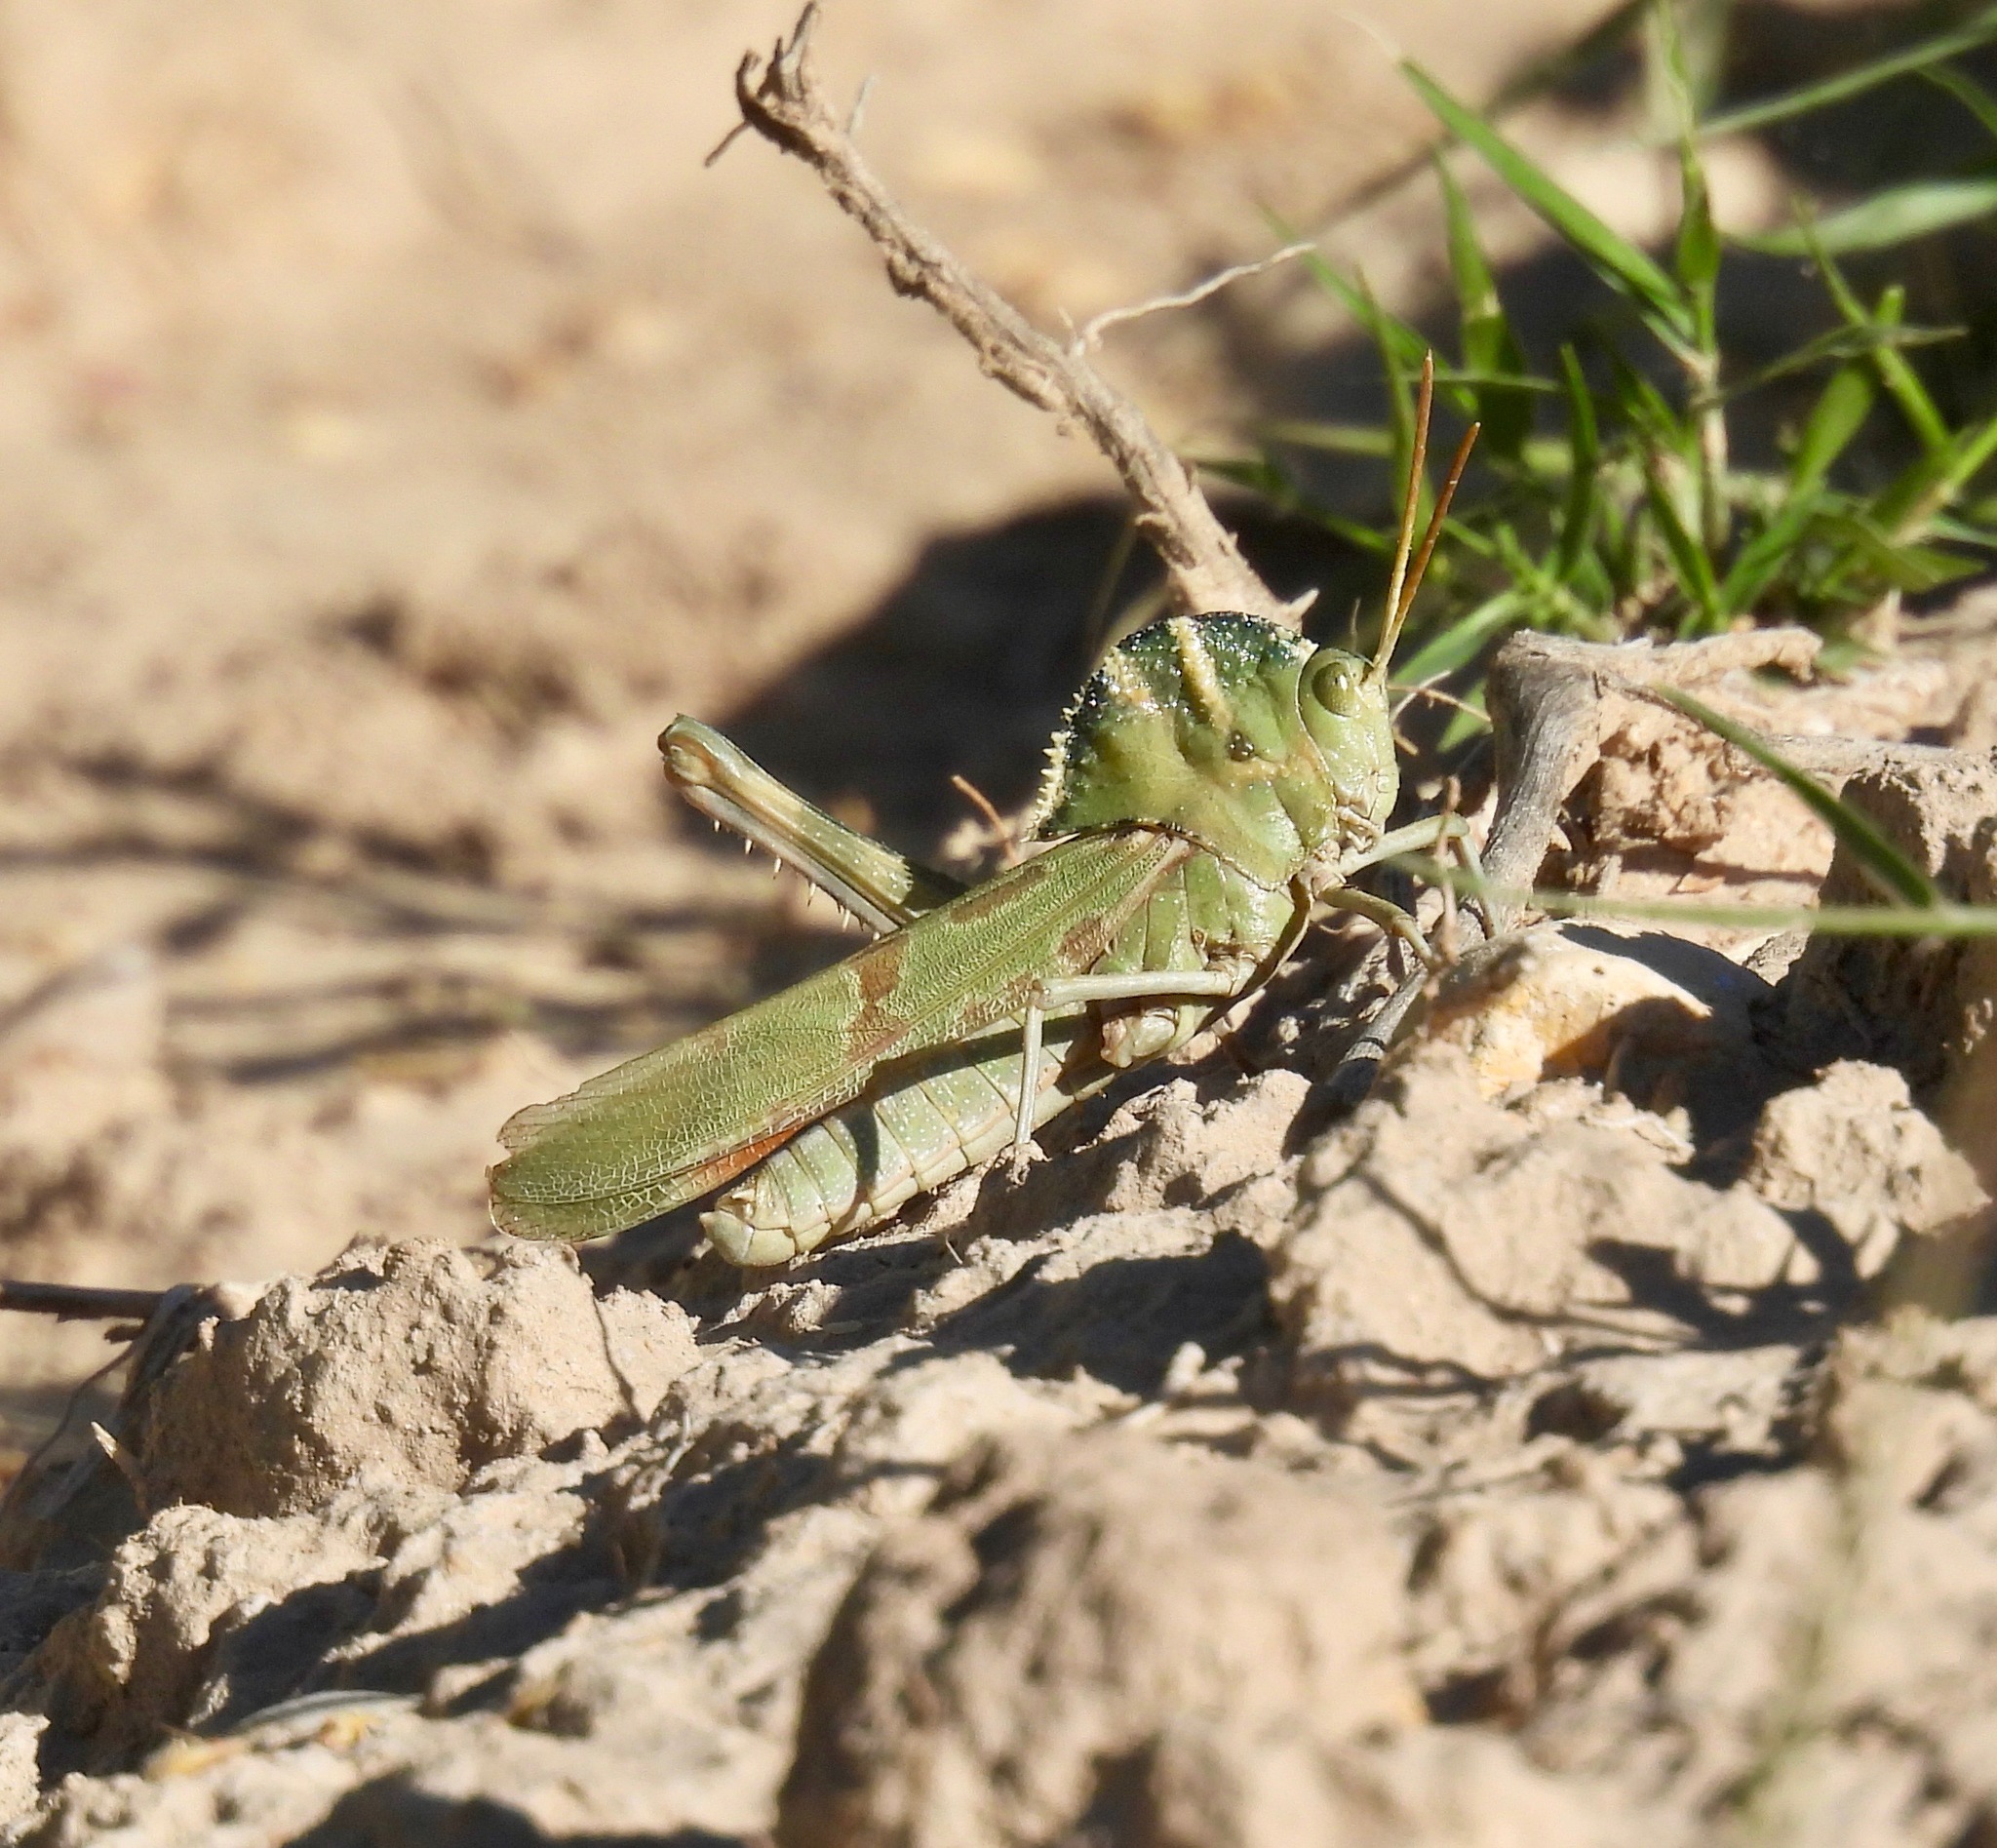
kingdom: Animalia
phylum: Arthropoda
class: Insecta
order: Orthoptera
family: Acrididae
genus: Tropidolophus
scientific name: Tropidolophus formosus
